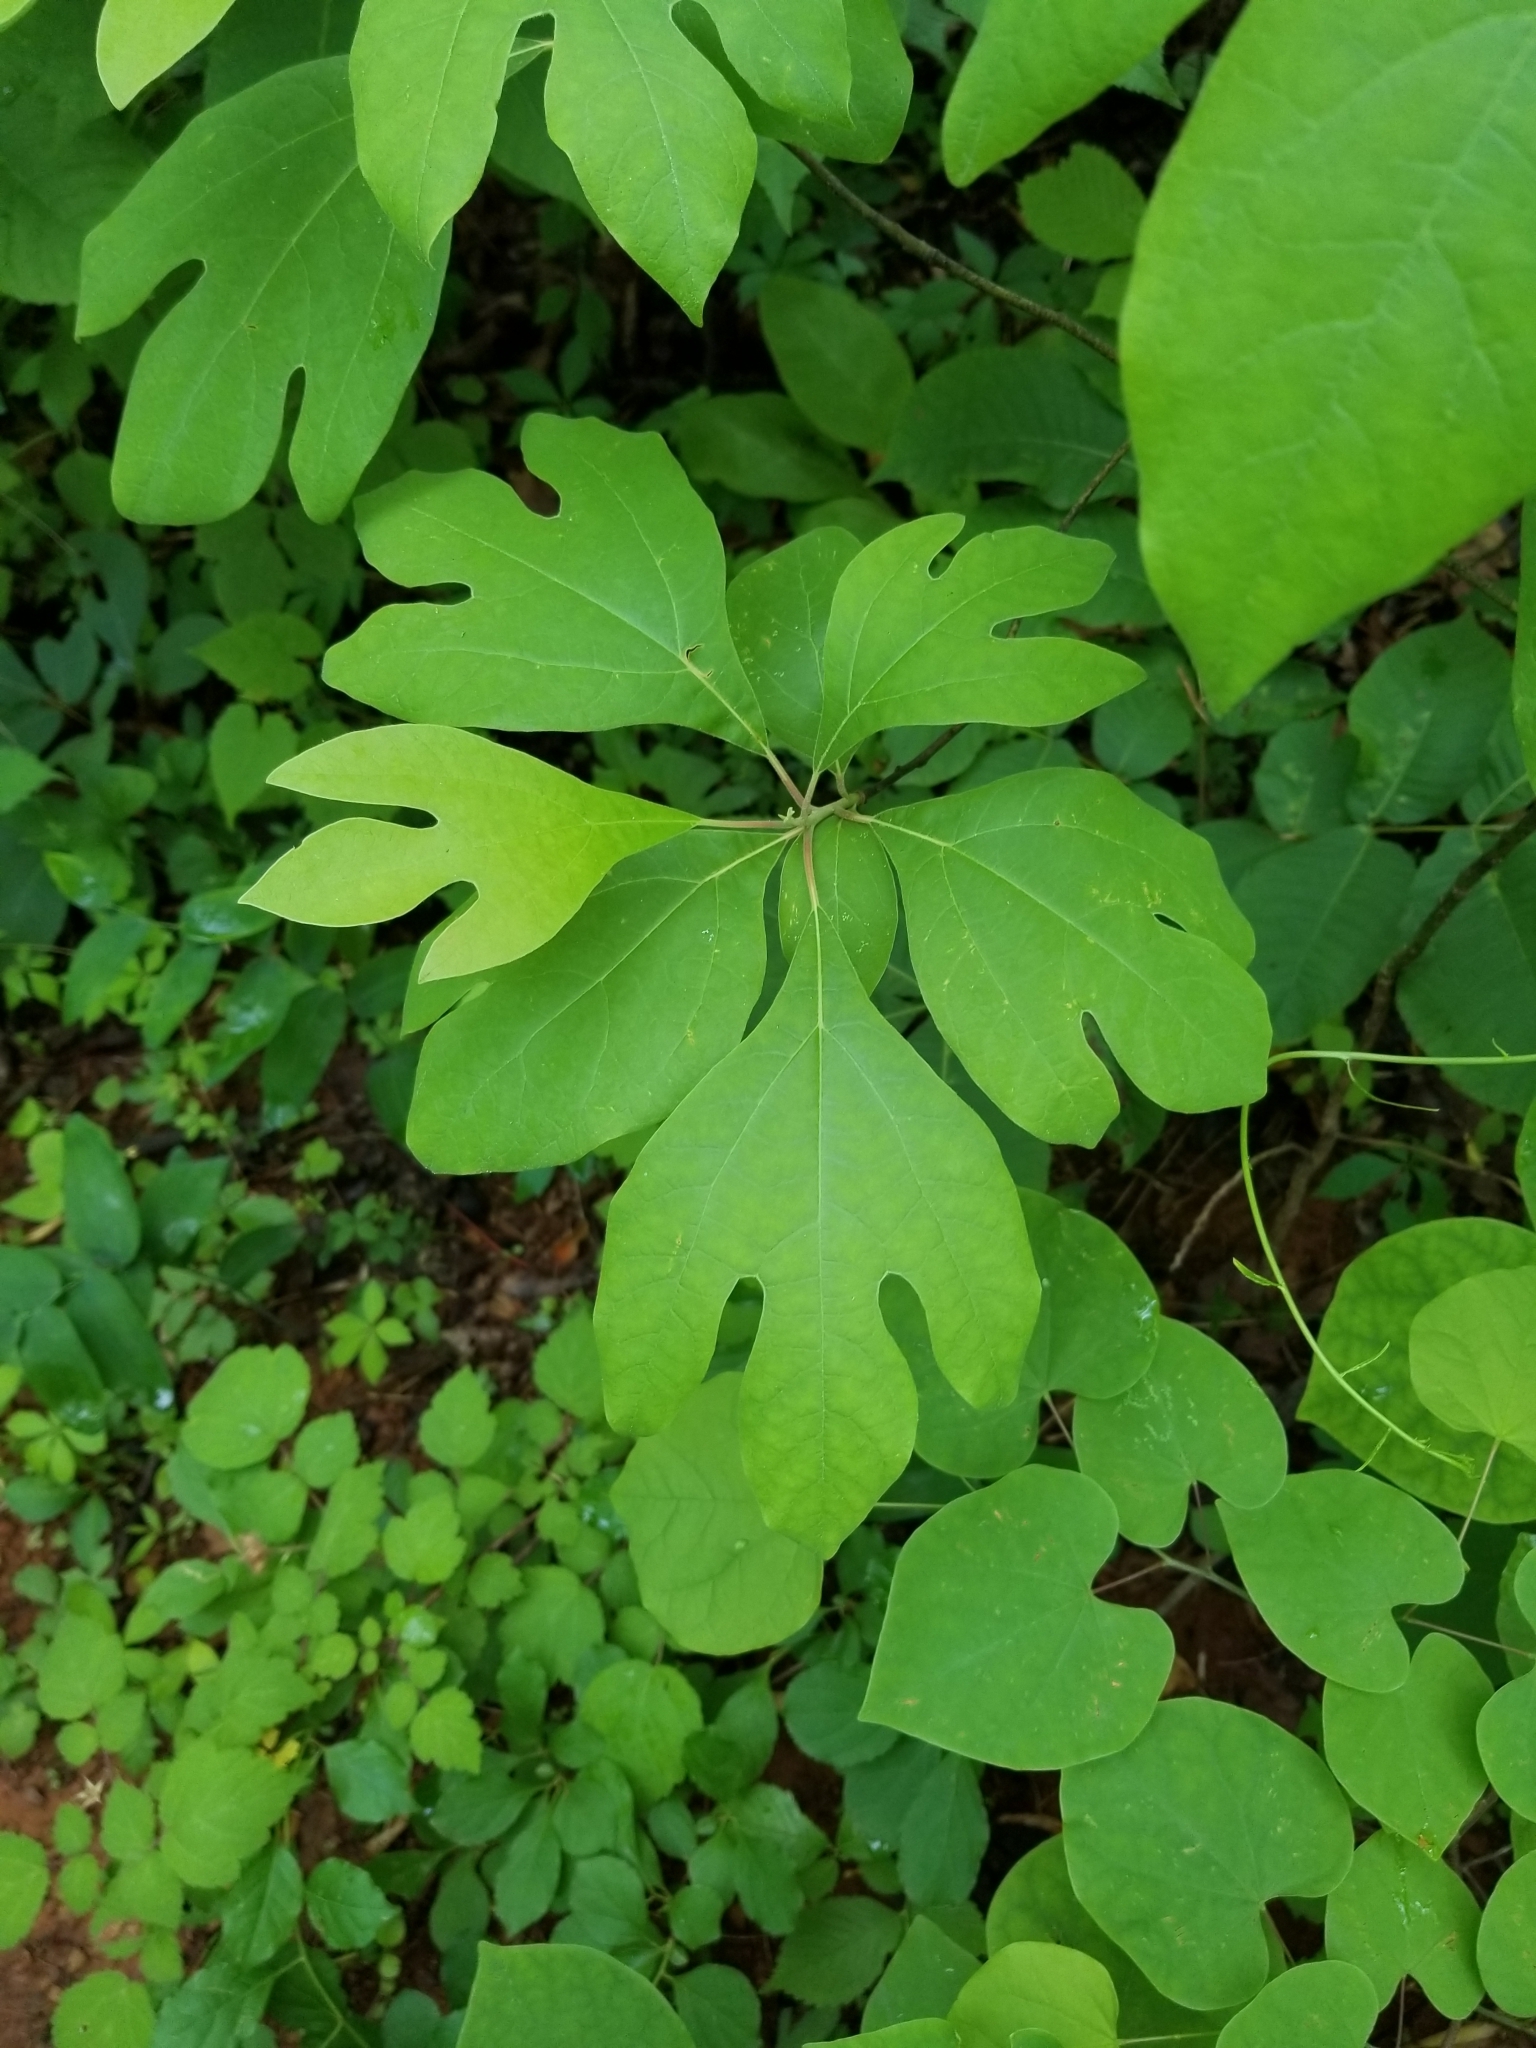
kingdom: Plantae
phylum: Tracheophyta
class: Magnoliopsida
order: Laurales
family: Lauraceae
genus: Sassafras
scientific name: Sassafras albidum
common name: Sassafras
